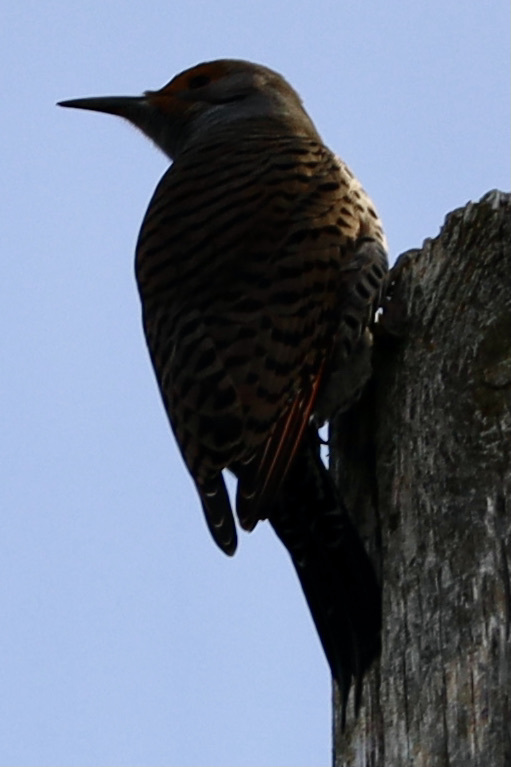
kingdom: Animalia
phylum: Chordata
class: Aves
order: Piciformes
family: Picidae
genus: Colaptes
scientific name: Colaptes auratus
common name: Northern flicker
